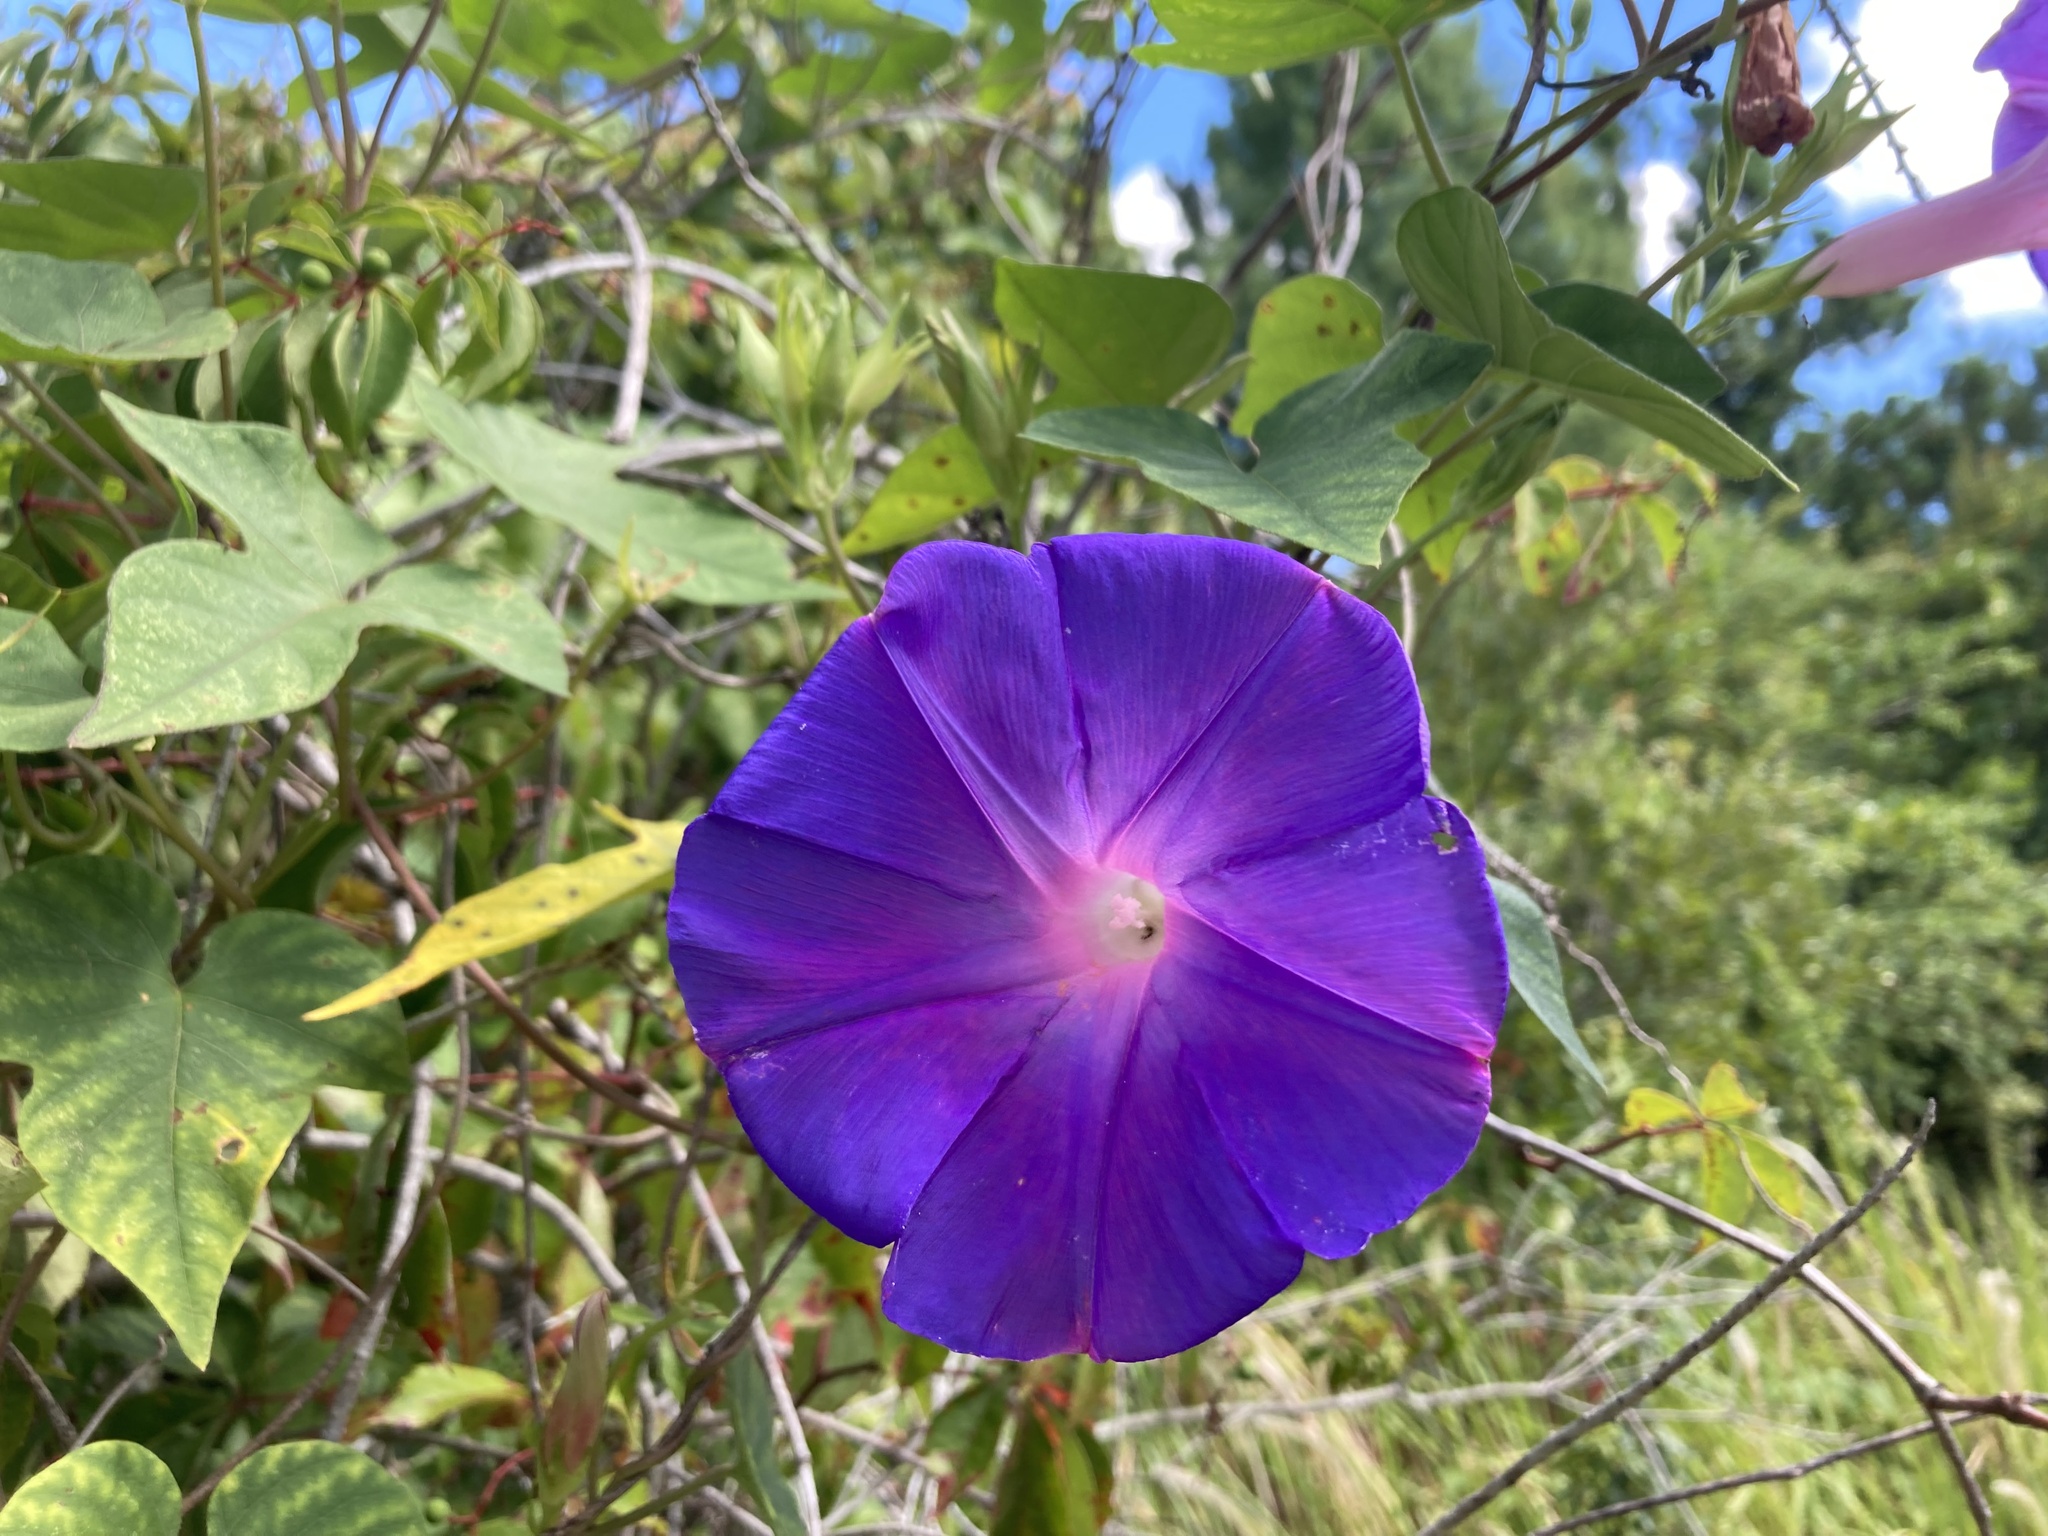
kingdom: Plantae
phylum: Tracheophyta
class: Magnoliopsida
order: Solanales
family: Convolvulaceae
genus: Ipomoea
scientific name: Ipomoea indica
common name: Blue dawnflower
